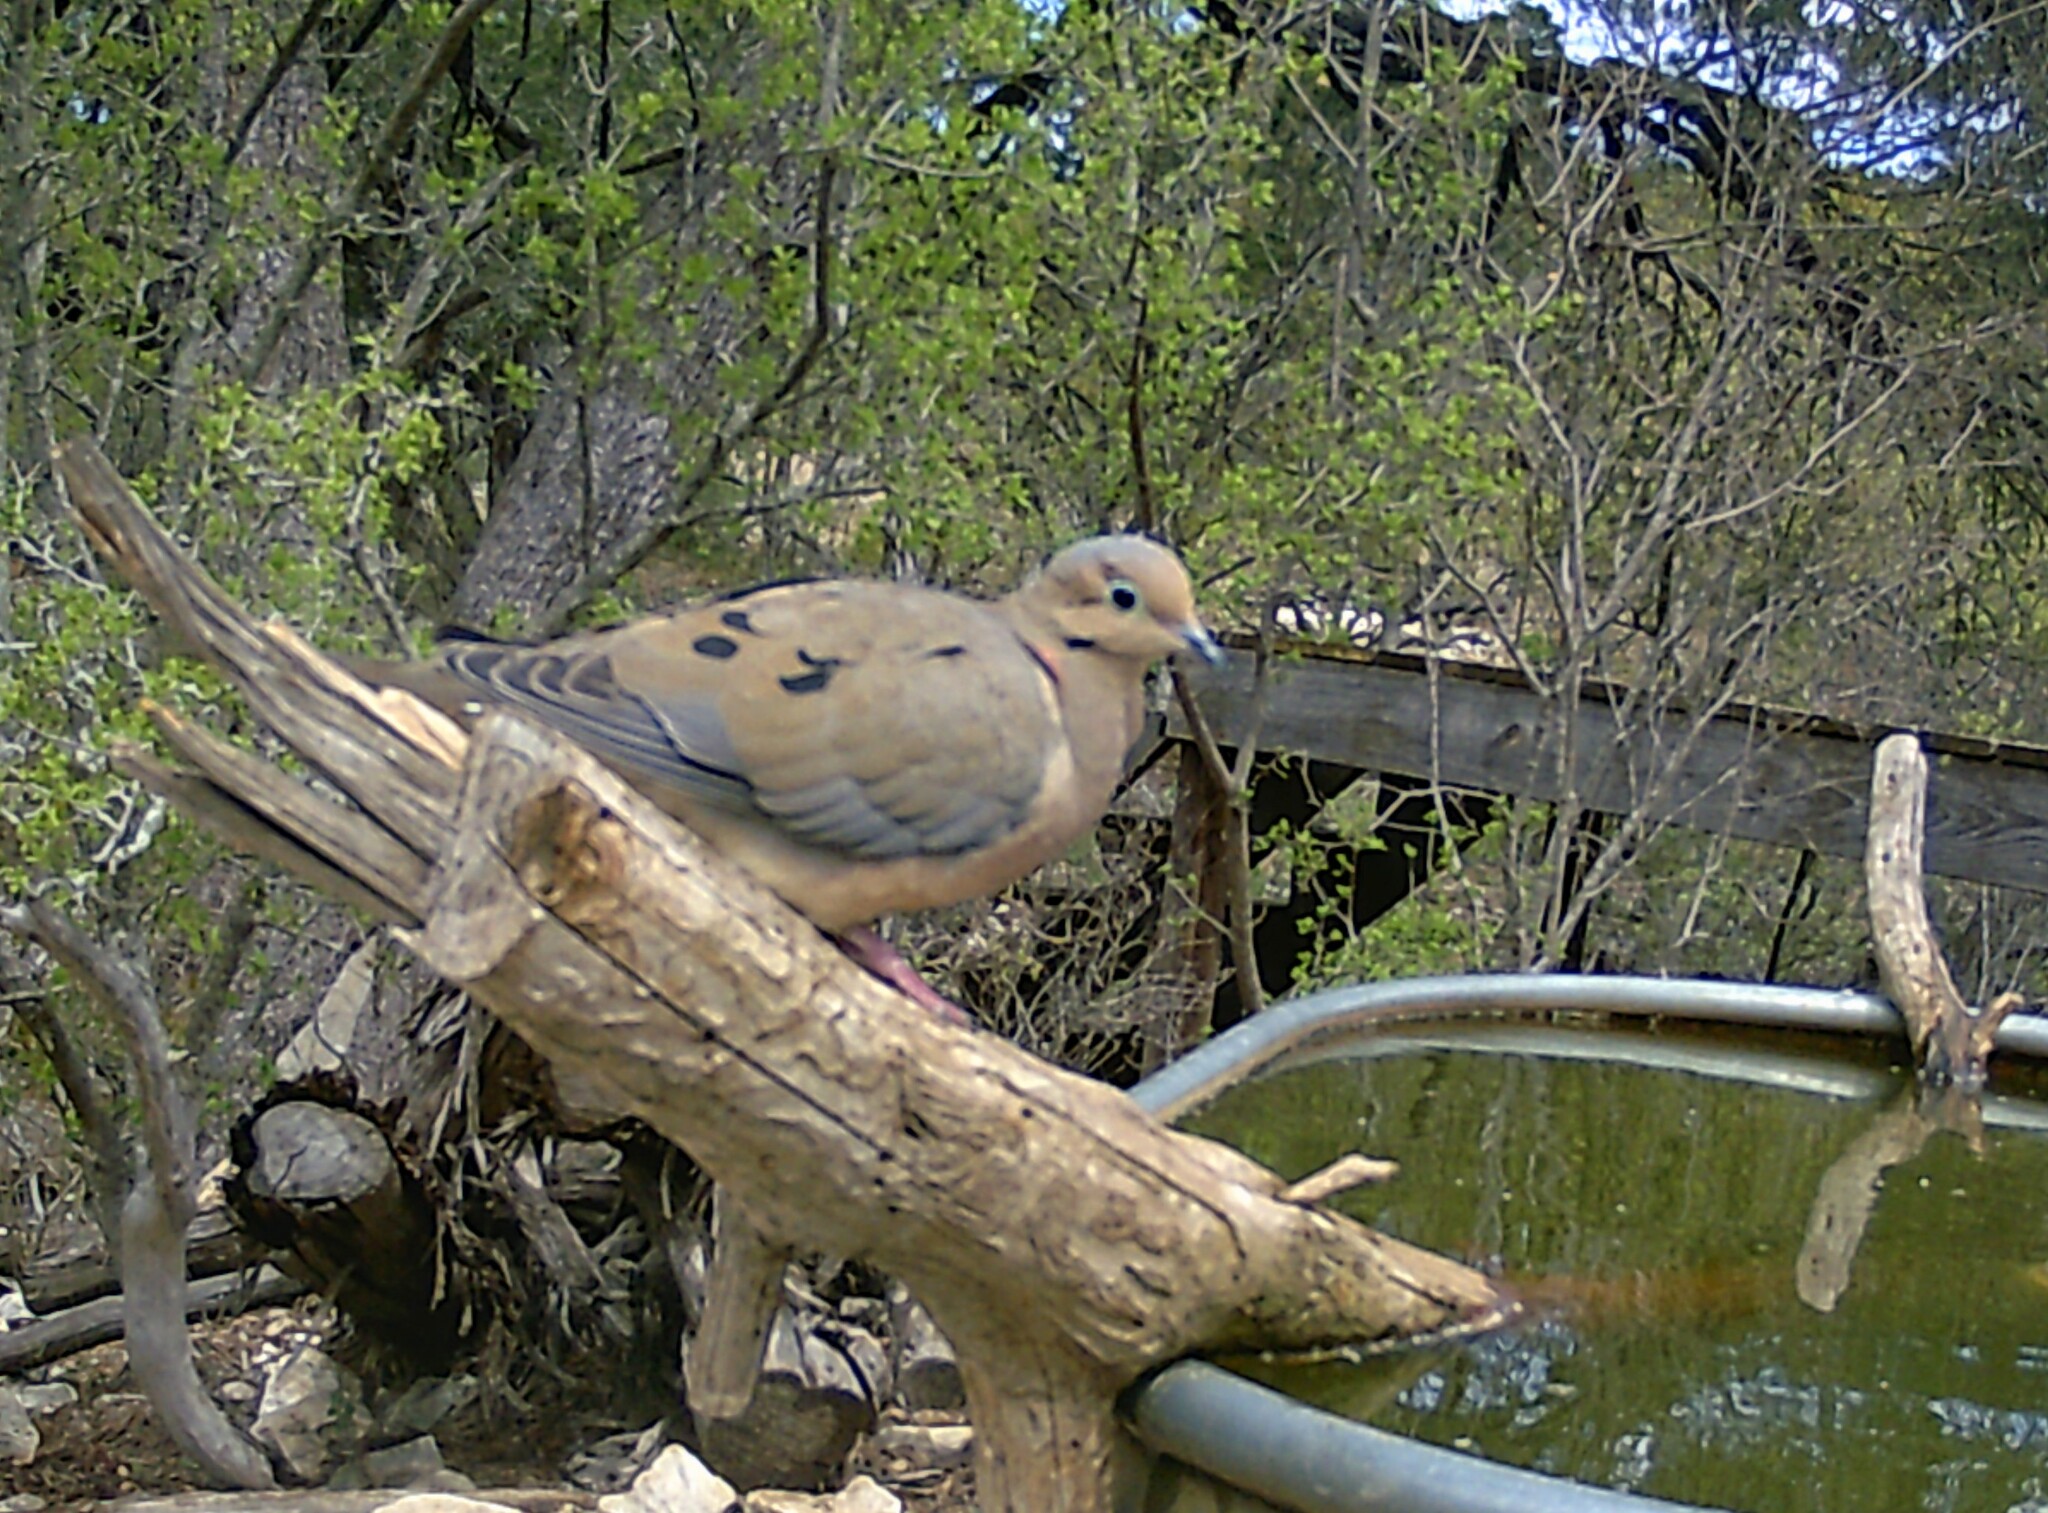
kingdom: Animalia
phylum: Chordata
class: Aves
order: Columbiformes
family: Columbidae
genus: Zenaida
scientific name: Zenaida macroura
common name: Mourning dove
